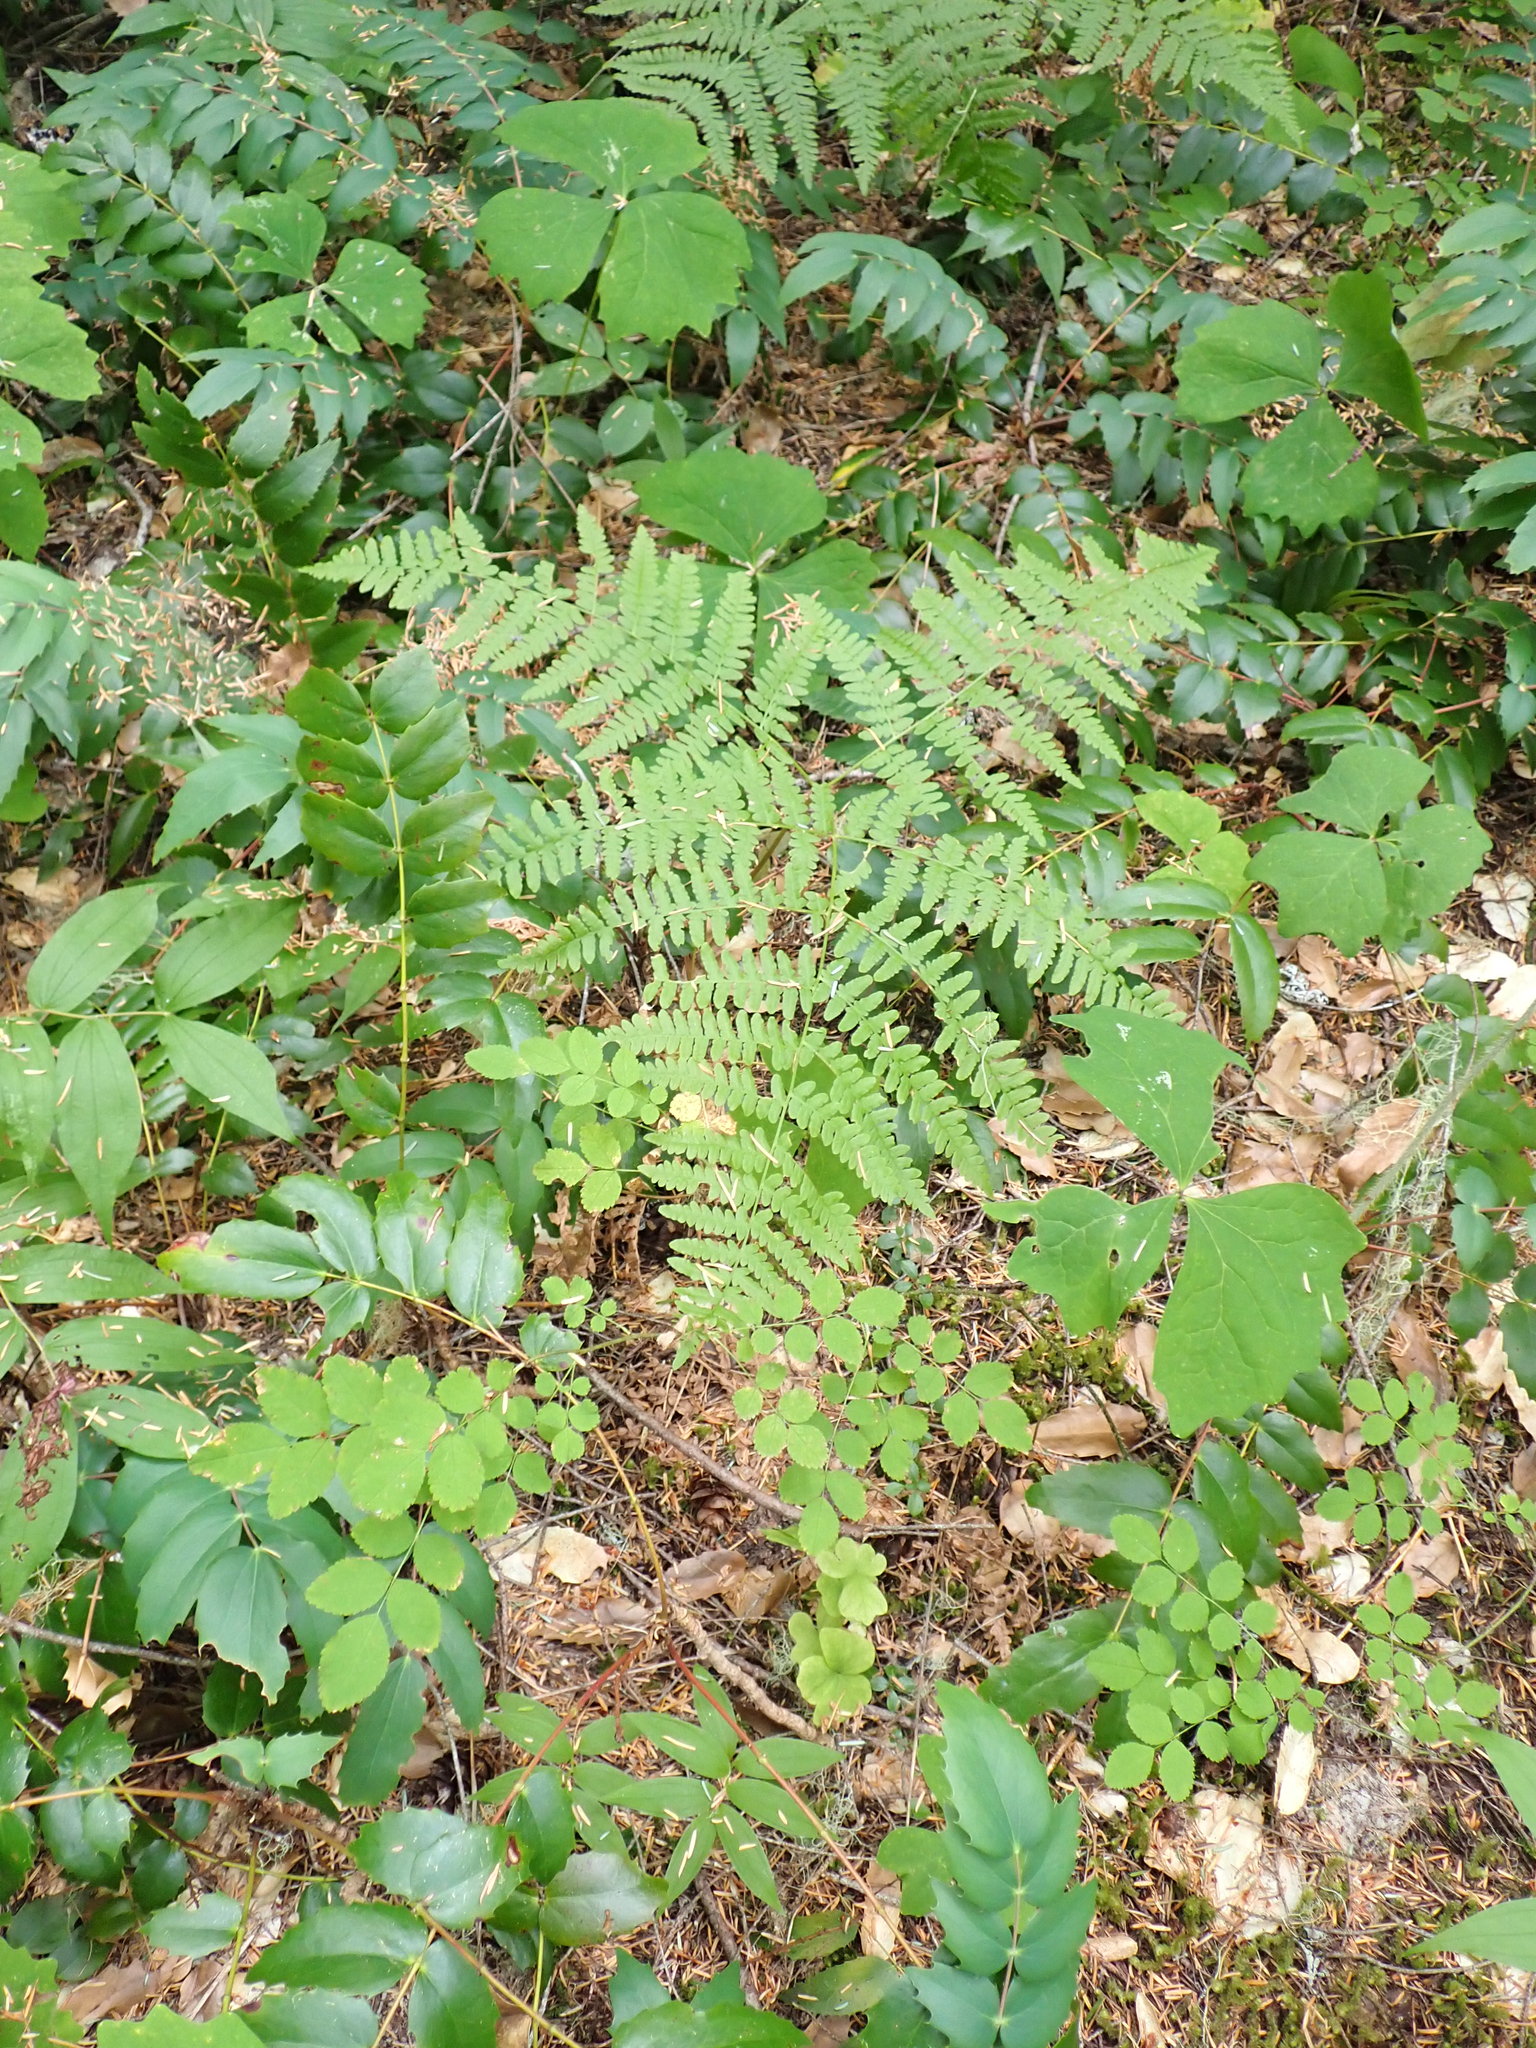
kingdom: Plantae
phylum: Tracheophyta
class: Polypodiopsida
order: Polypodiales
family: Dennstaedtiaceae
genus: Pteridium
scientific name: Pteridium aquilinum
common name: Bracken
